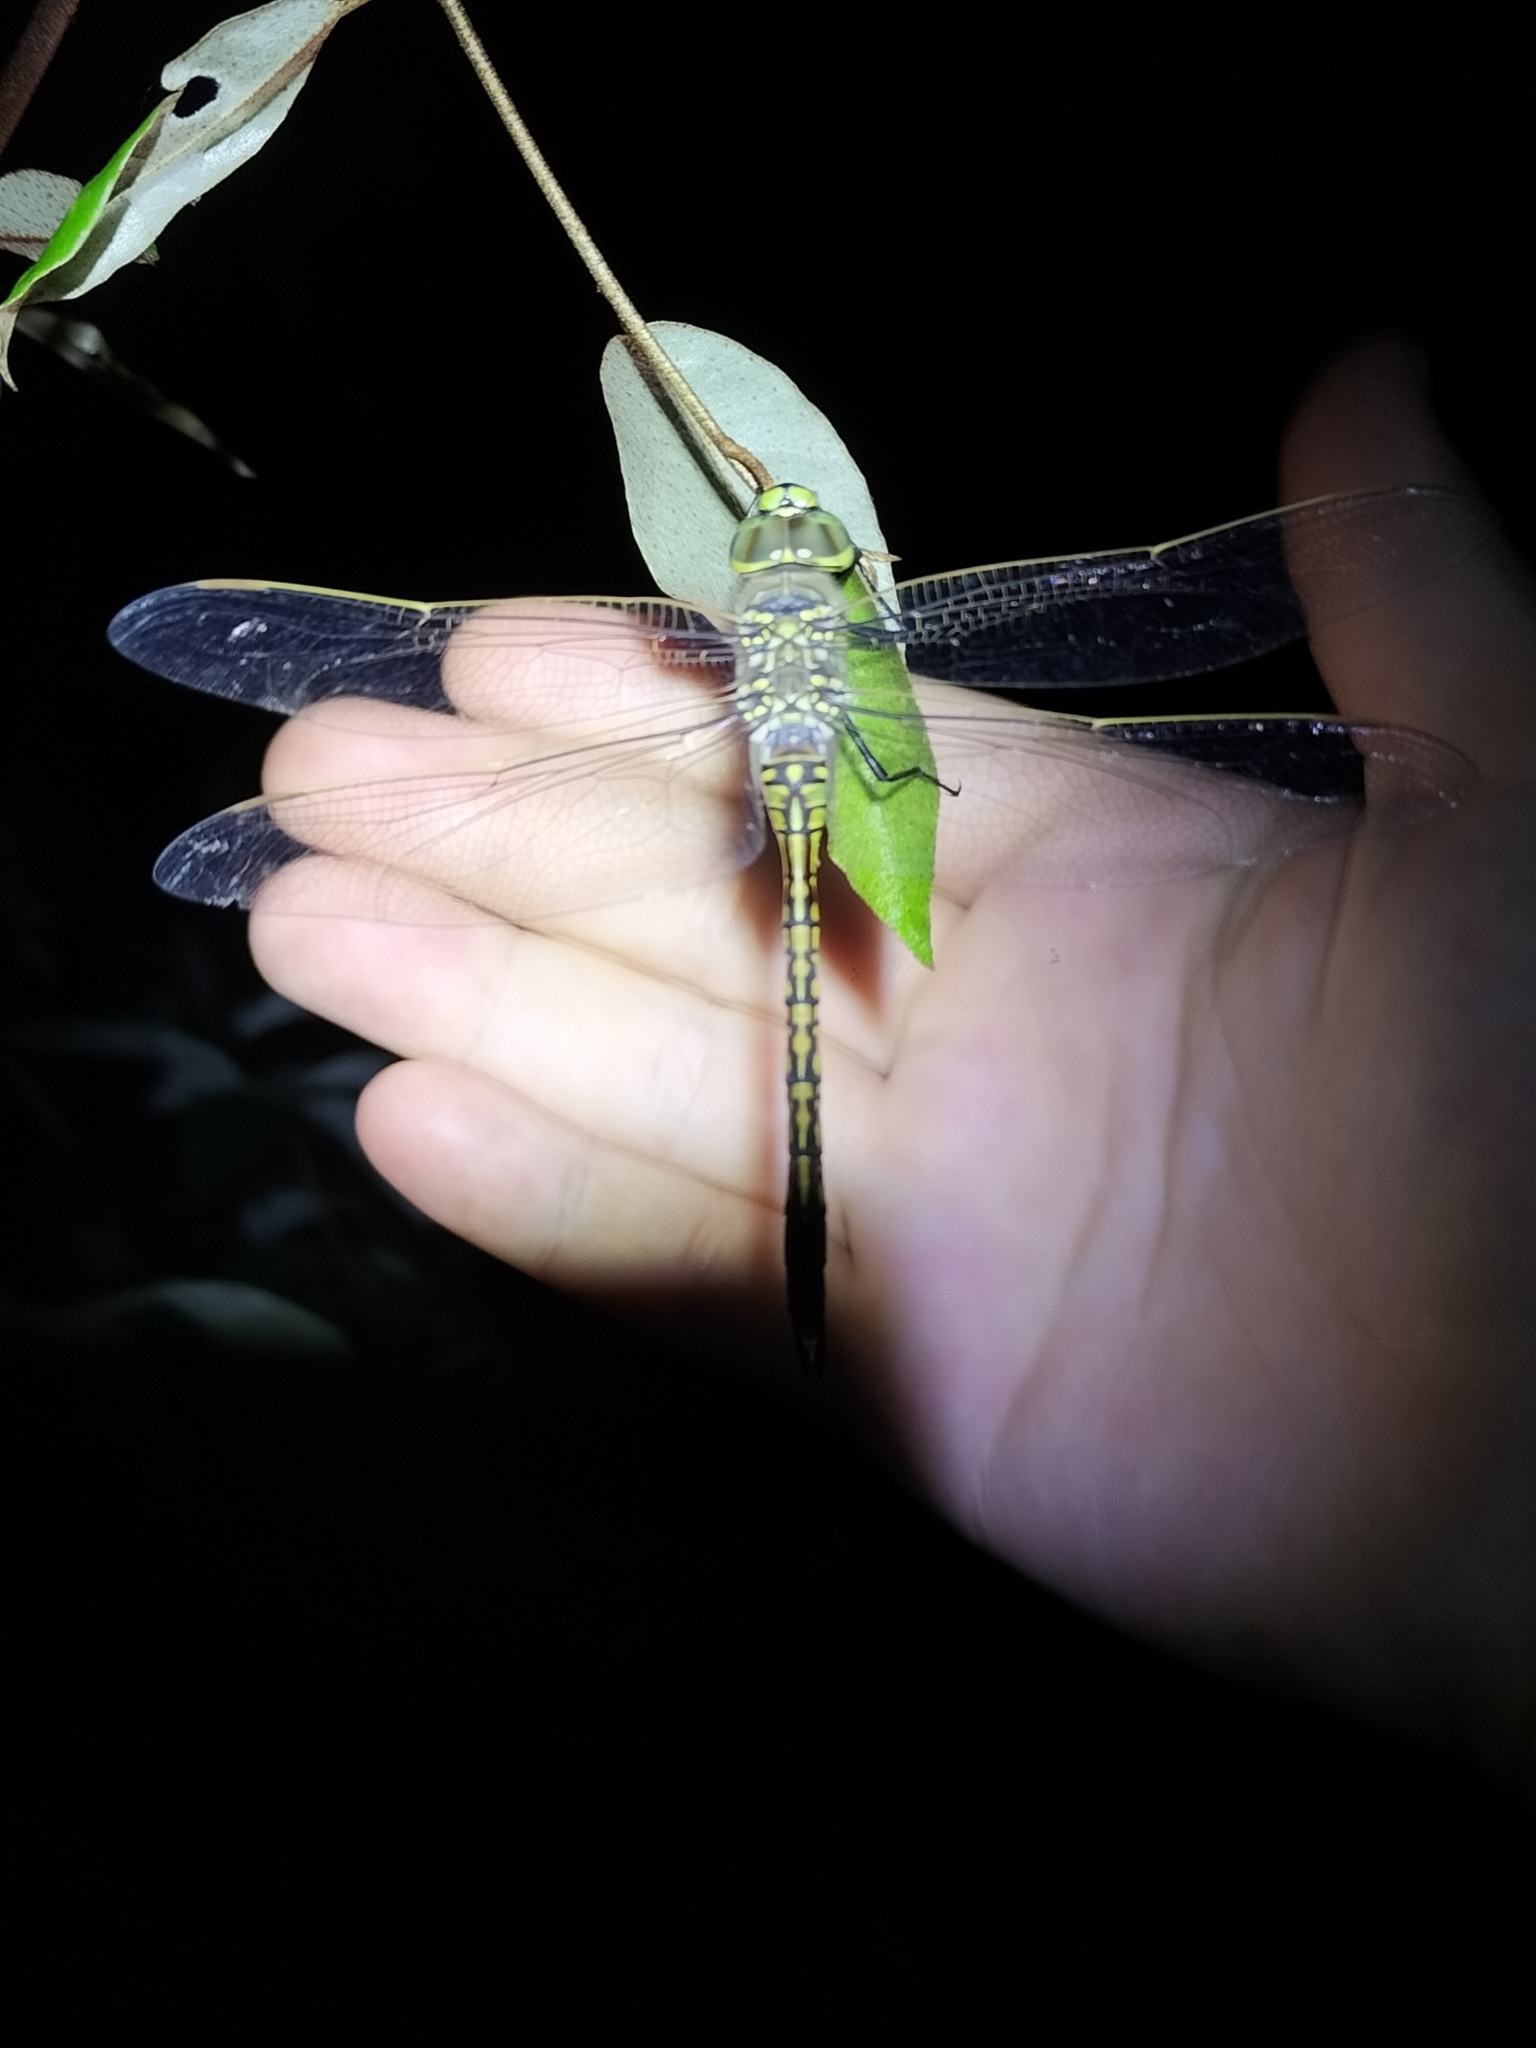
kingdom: Animalia
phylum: Arthropoda
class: Insecta
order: Odonata
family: Aeshnidae
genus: Anax
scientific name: Anax papuensis
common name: Australian emperor
